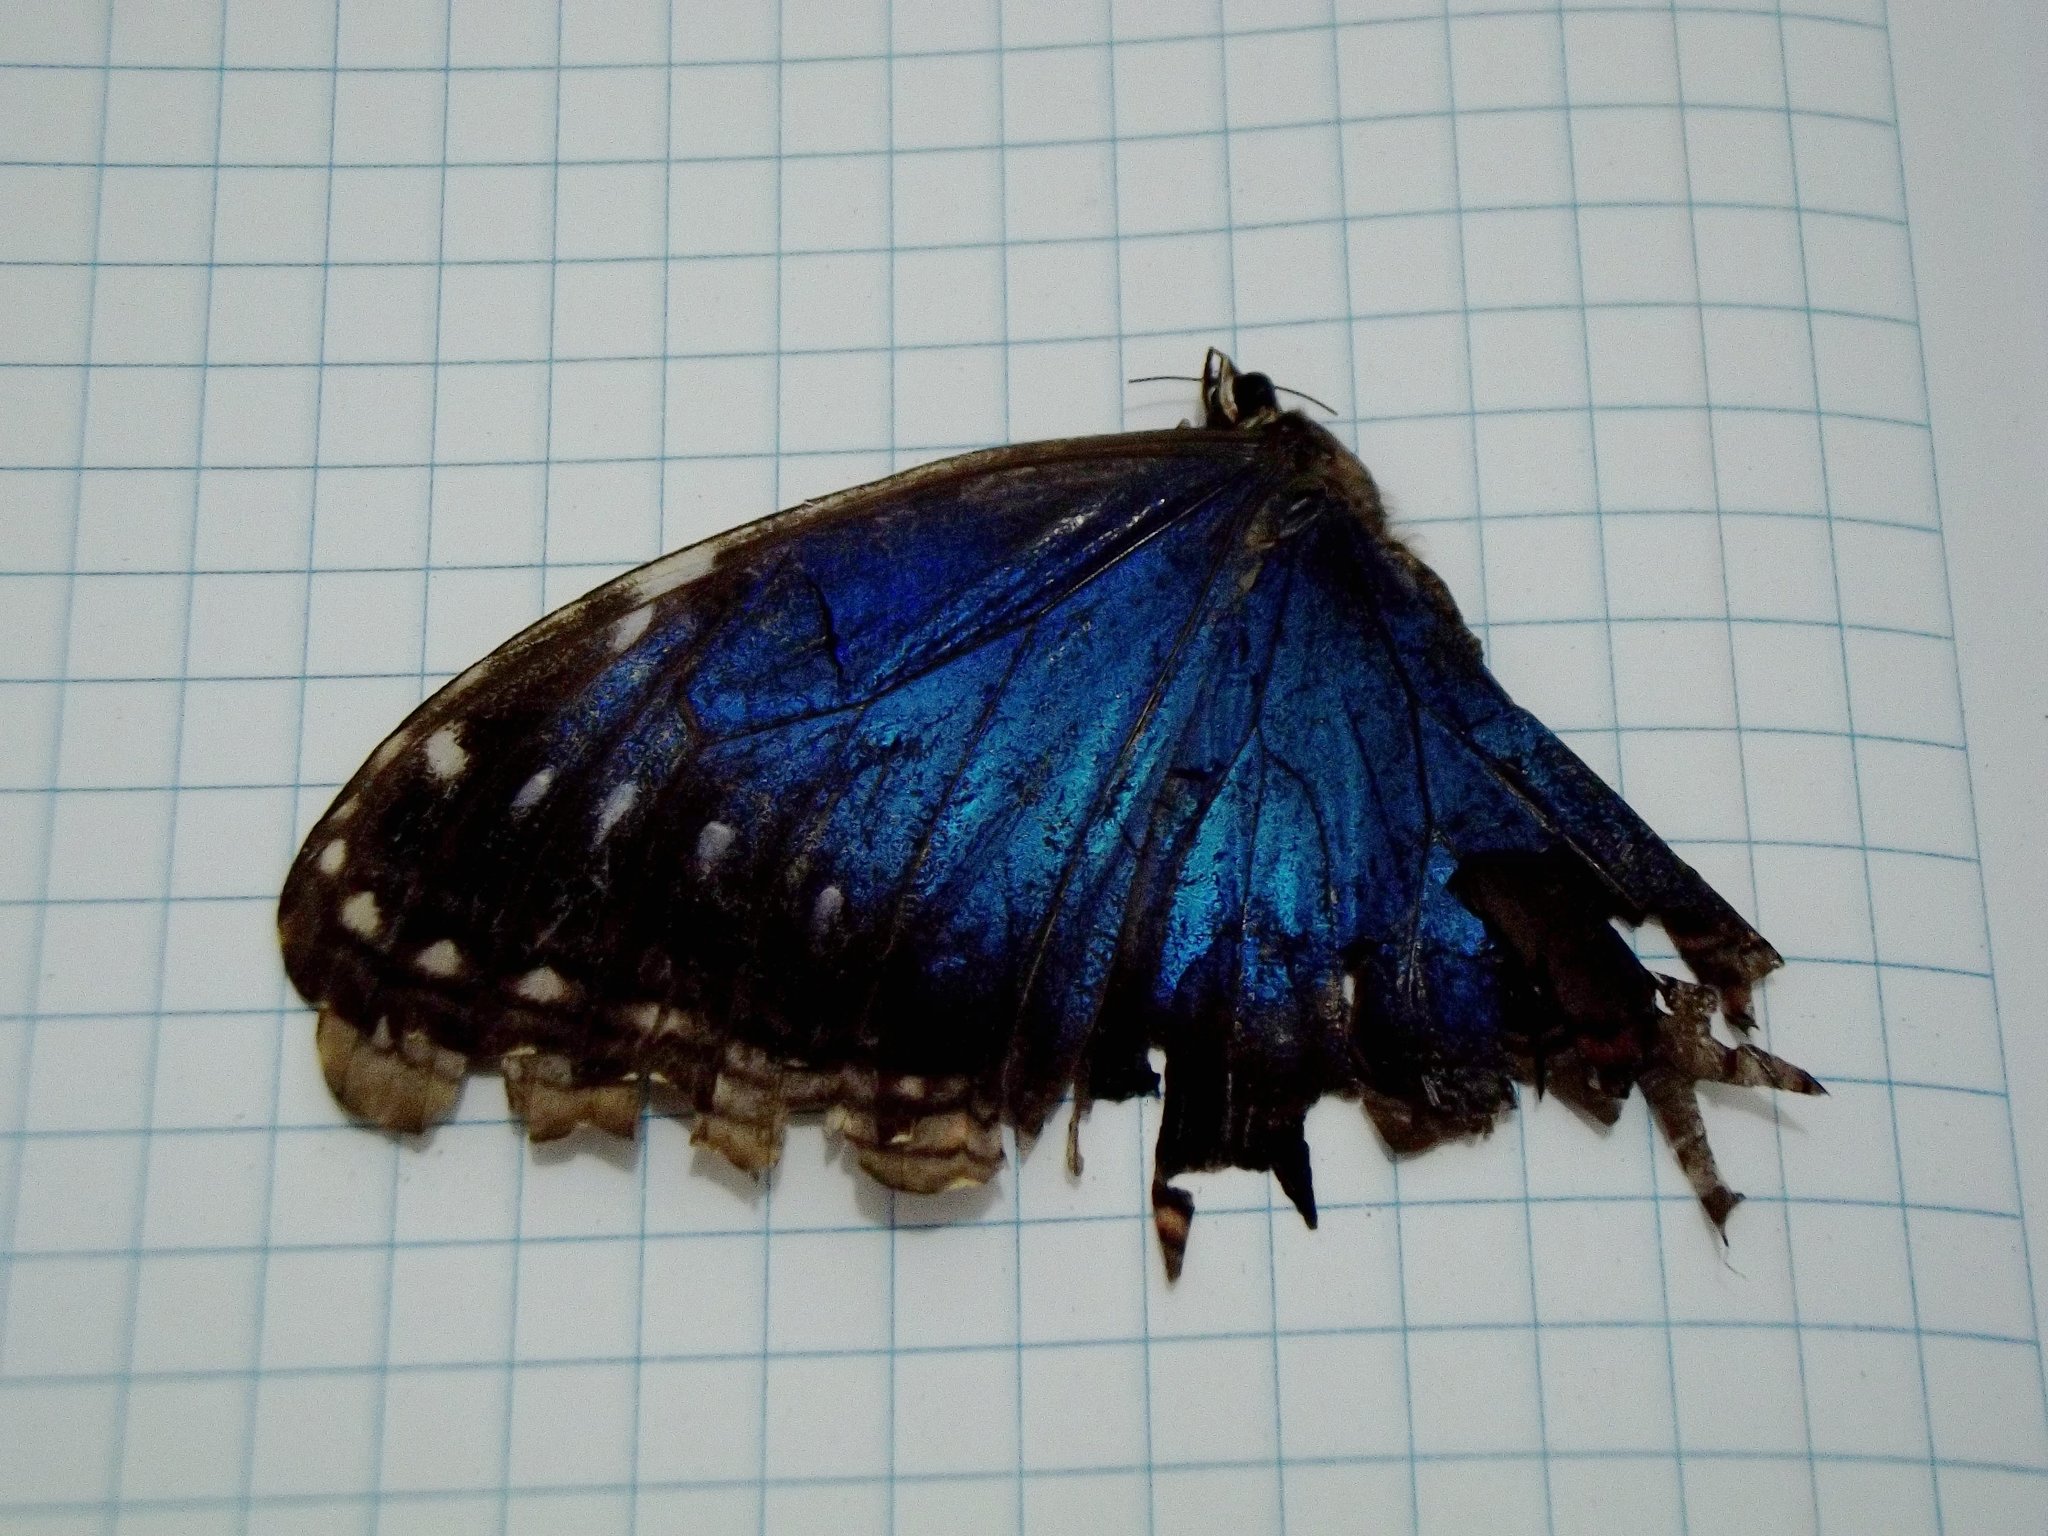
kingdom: Animalia
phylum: Arthropoda
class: Insecta
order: Lepidoptera
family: Nymphalidae
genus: Morpho
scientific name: Morpho helenor
